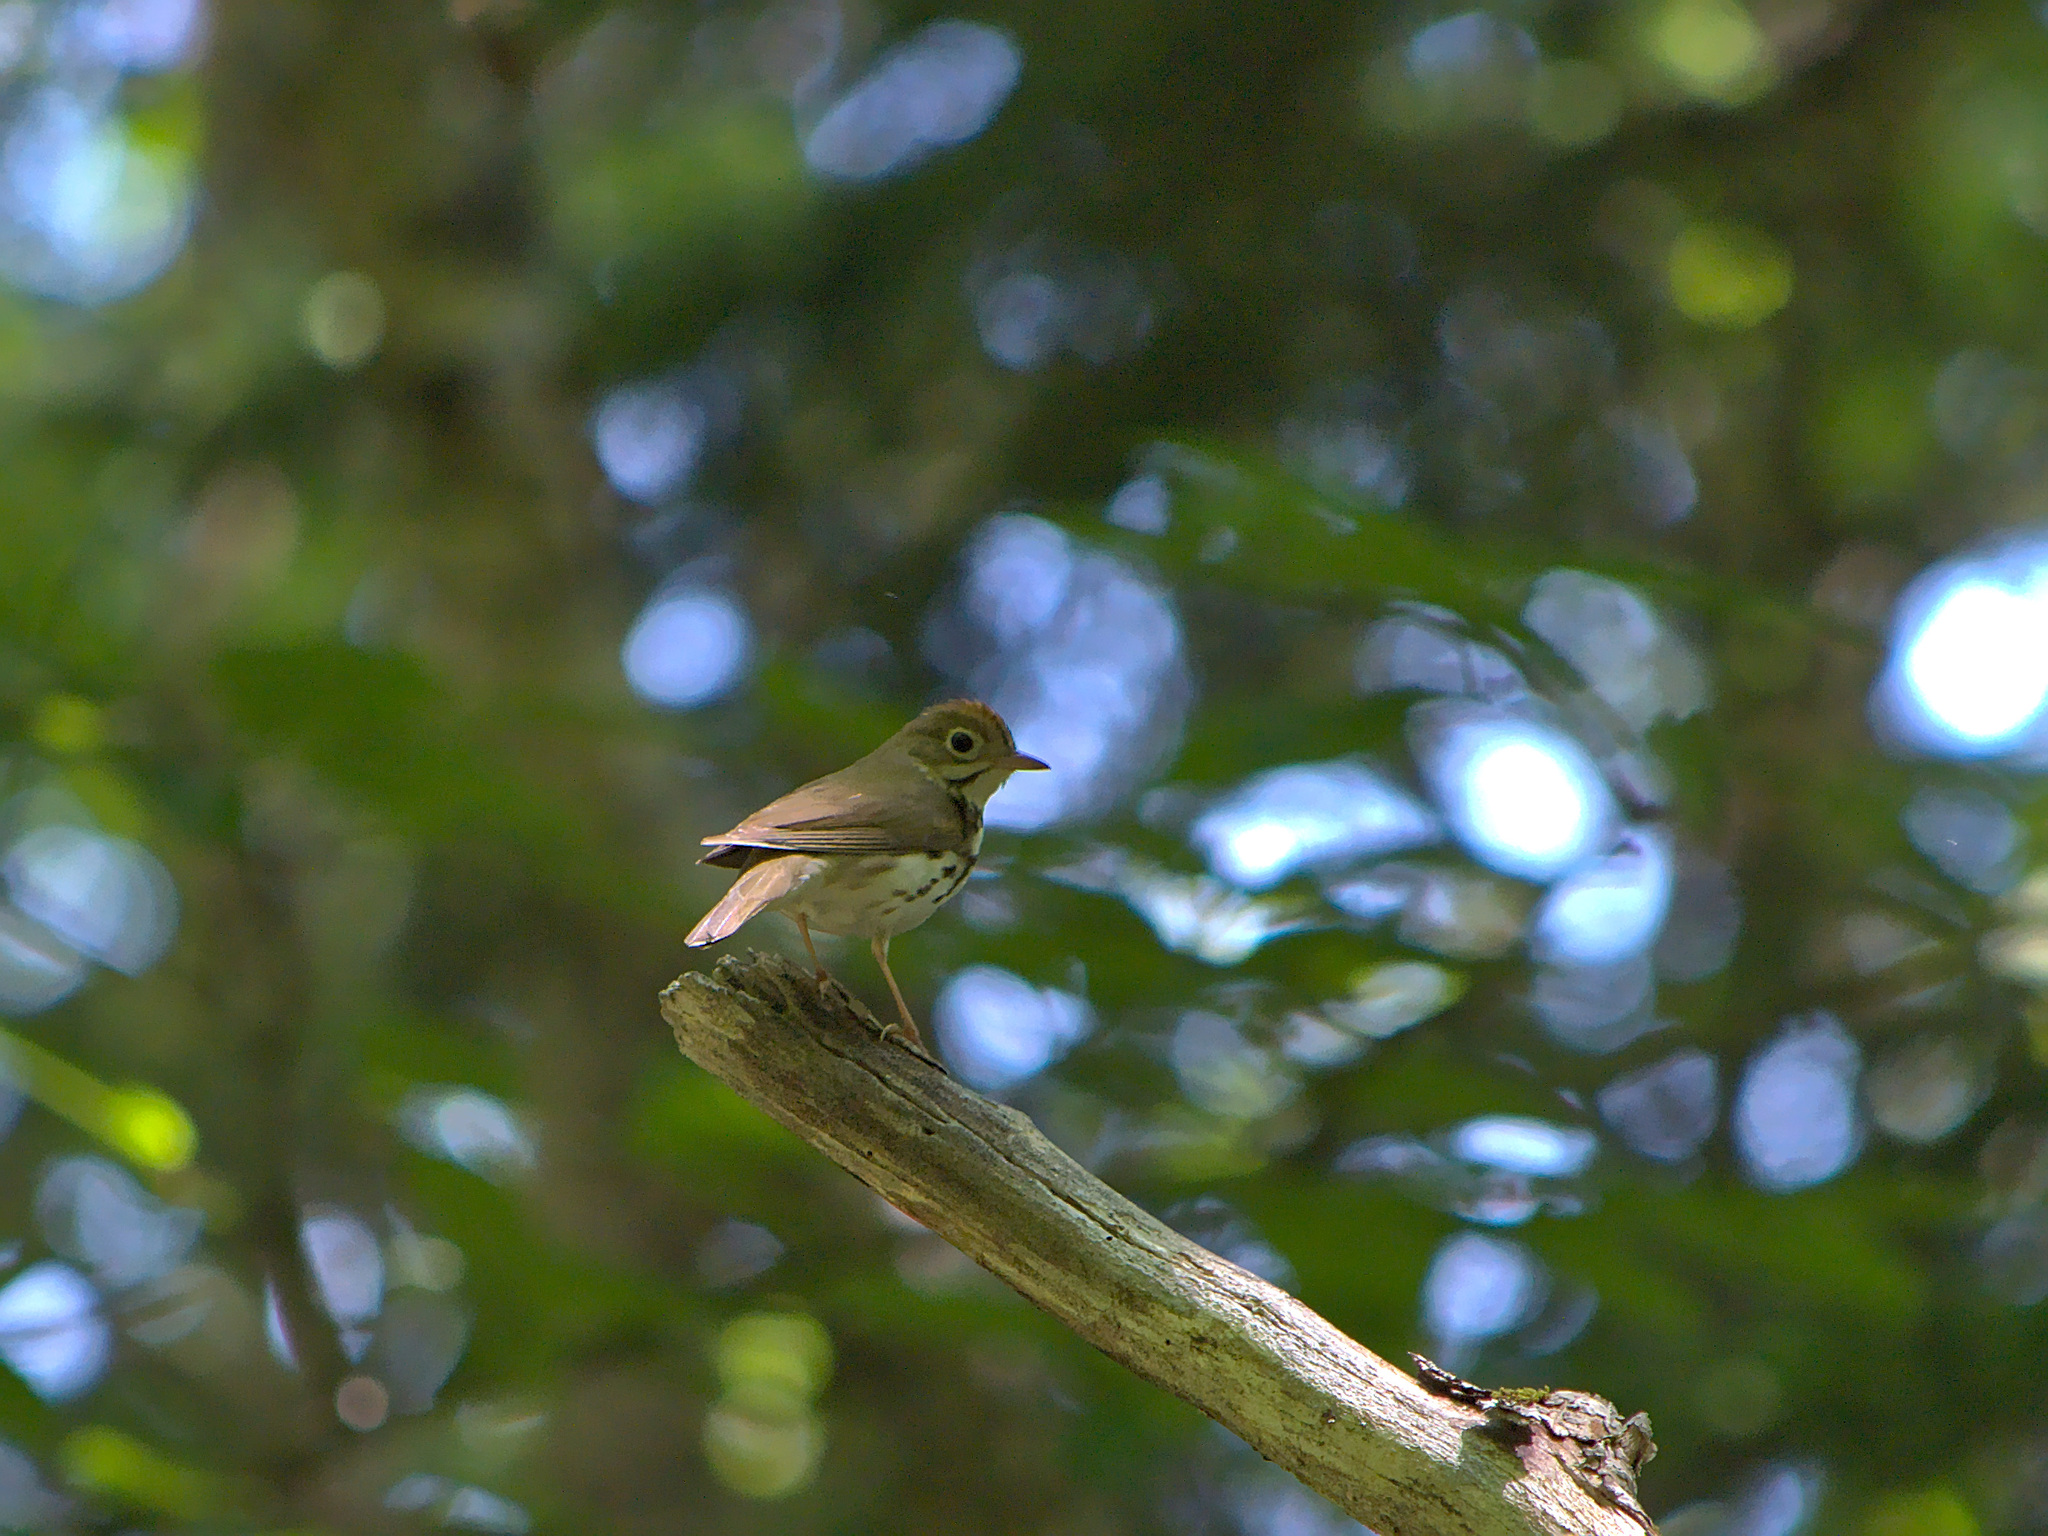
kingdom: Animalia
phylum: Chordata
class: Aves
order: Passeriformes
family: Parulidae
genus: Seiurus
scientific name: Seiurus aurocapilla
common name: Ovenbird
